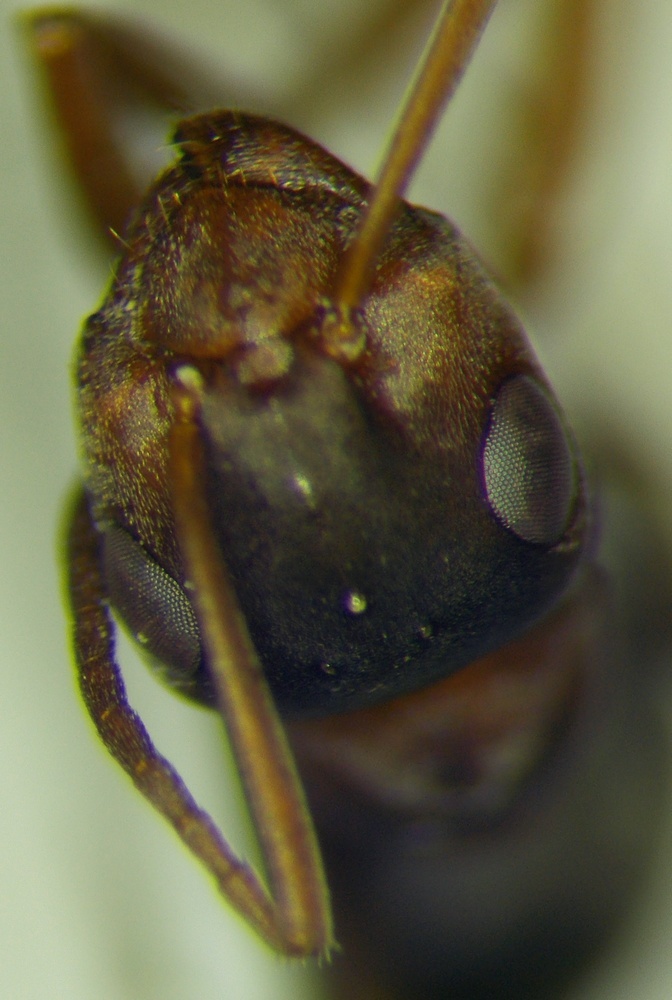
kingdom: Animalia
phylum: Arthropoda
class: Insecta
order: Hymenoptera
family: Formicidae
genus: Formica
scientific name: Formica cunicularia
